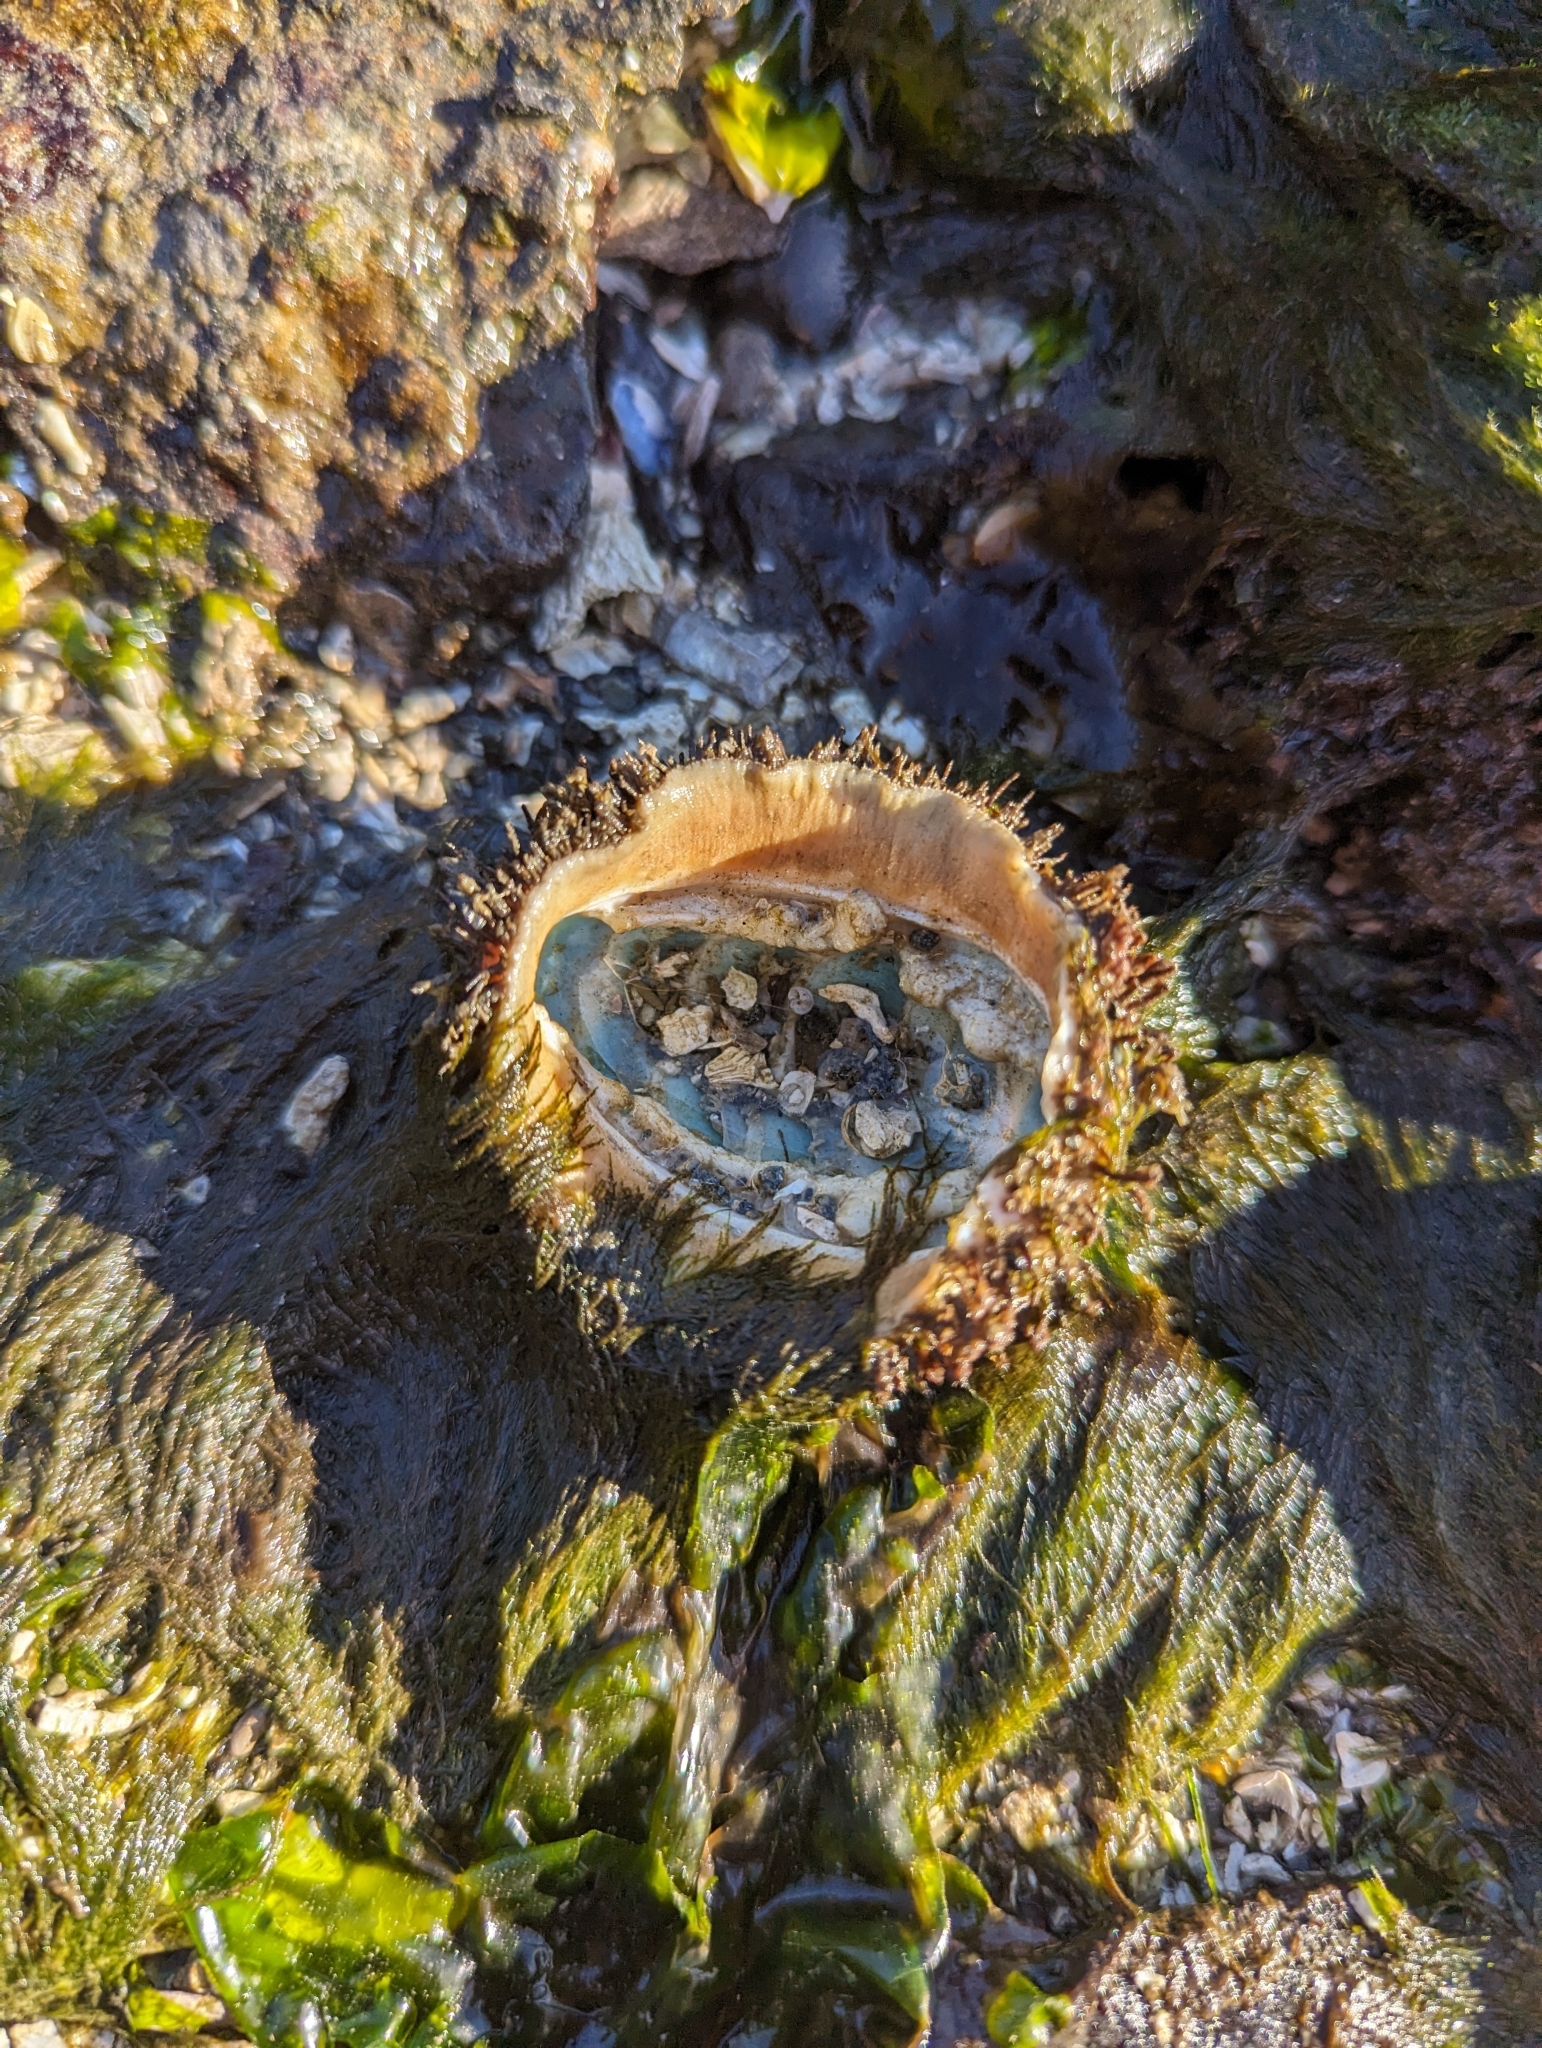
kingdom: Animalia
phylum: Mollusca
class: Polyplacophora
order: Chitonida
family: Mopaliidae
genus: Mopalia
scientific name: Mopalia muscosa
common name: Mossy chiton
